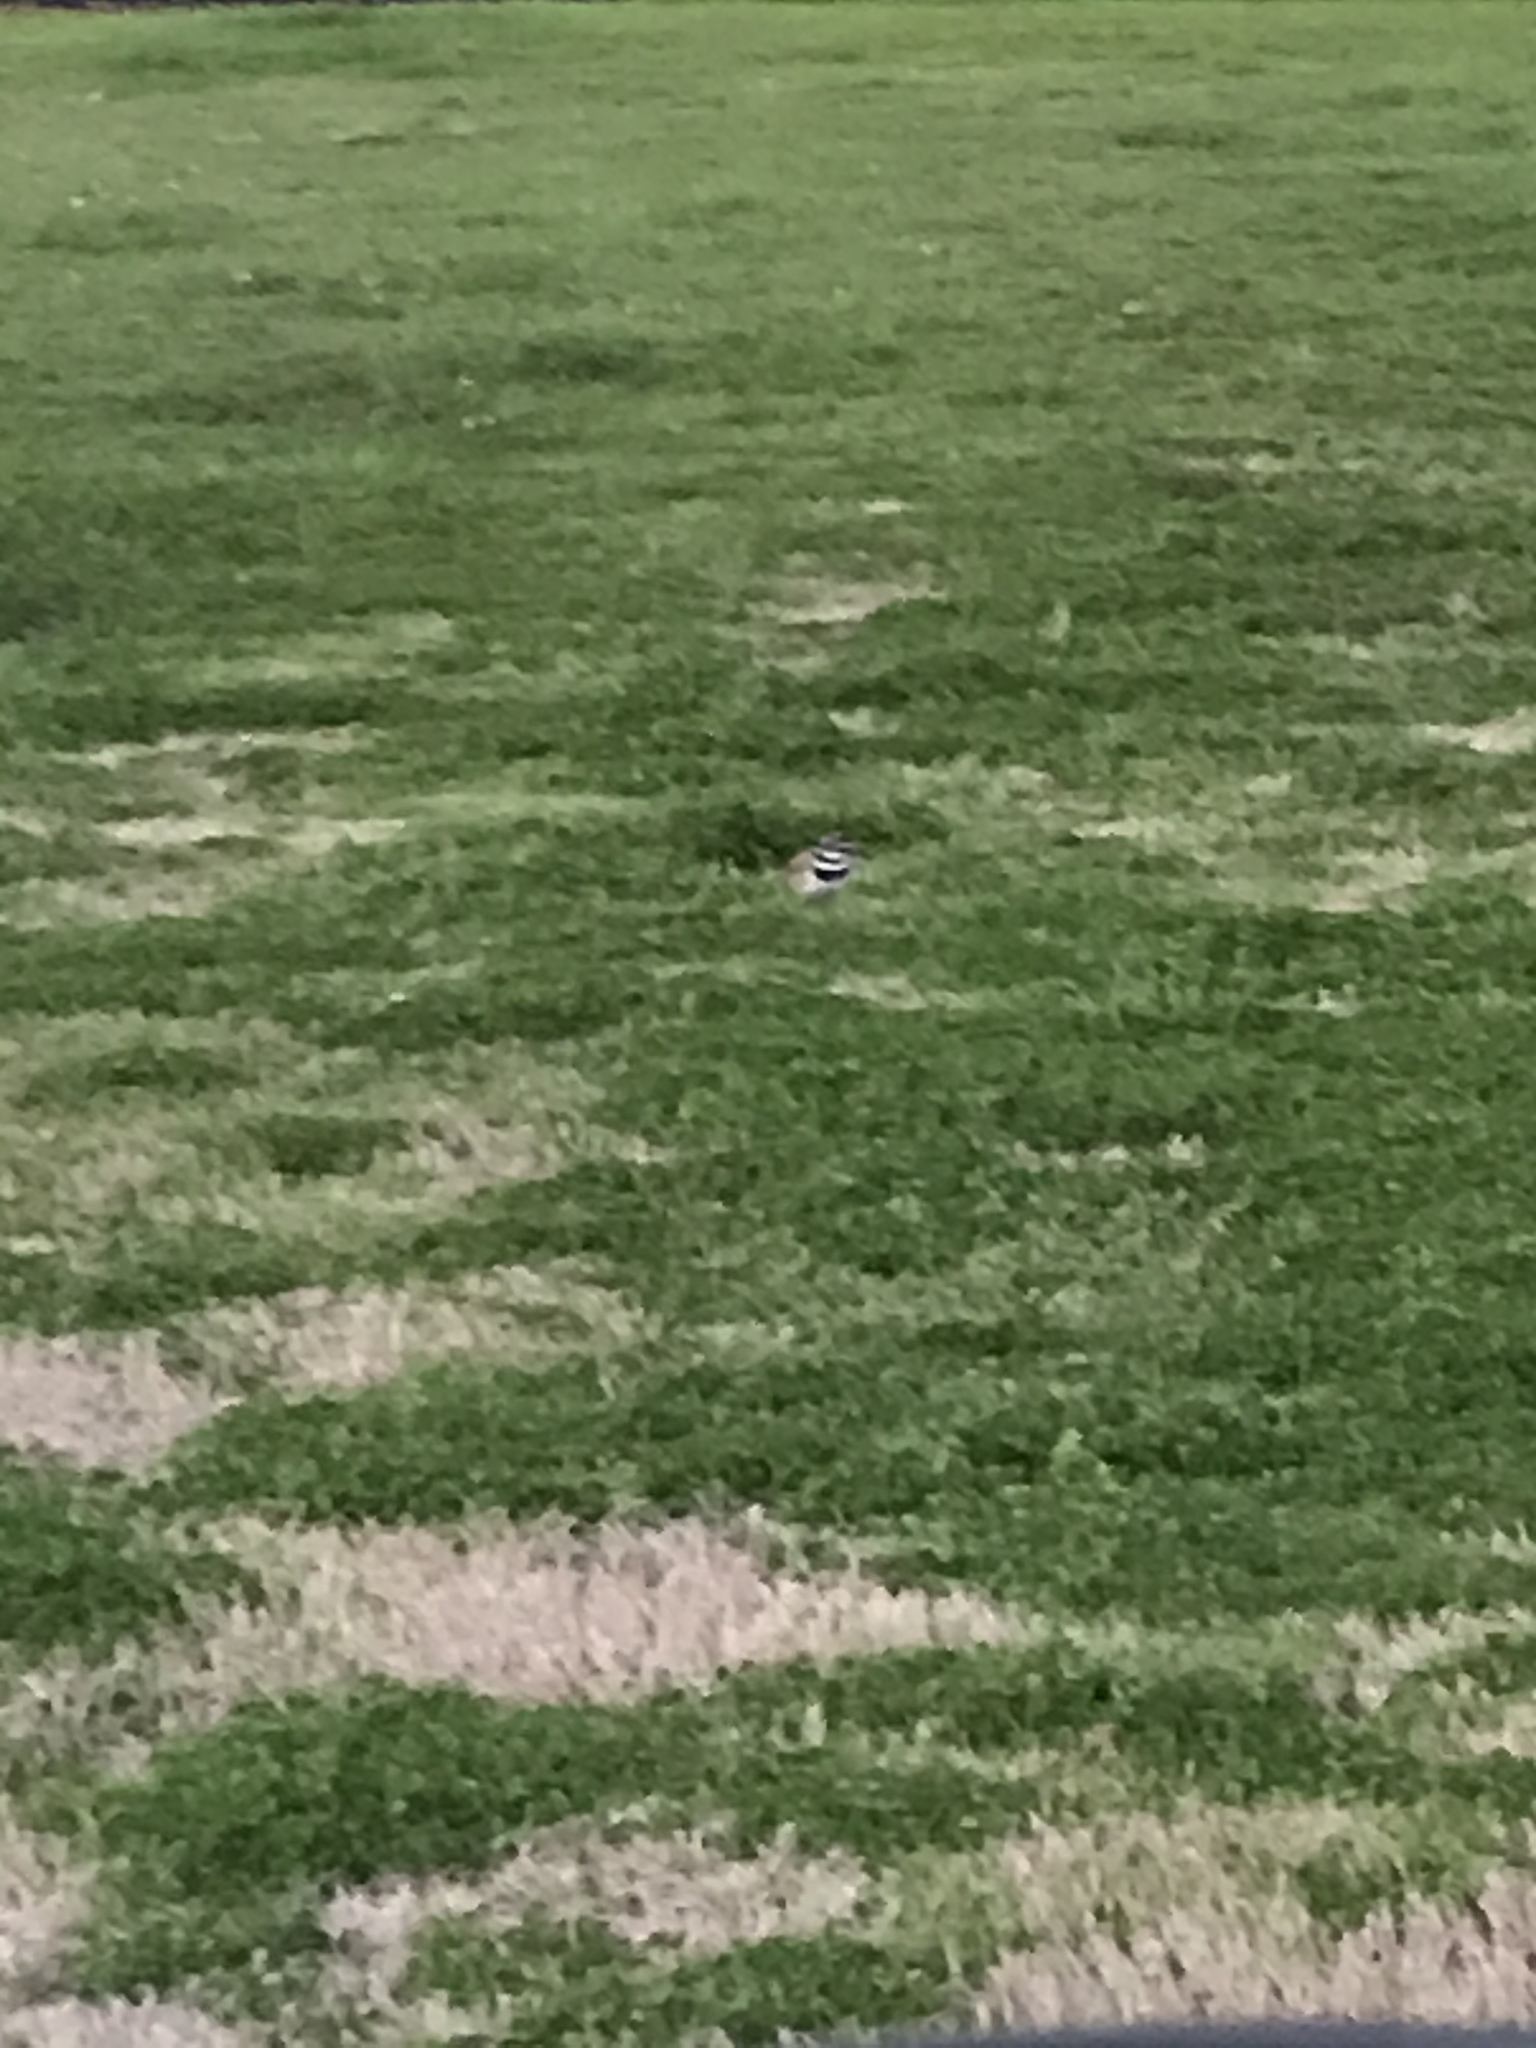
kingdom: Animalia
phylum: Chordata
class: Aves
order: Charadriiformes
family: Charadriidae
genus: Charadrius
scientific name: Charadrius vociferus
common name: Killdeer
